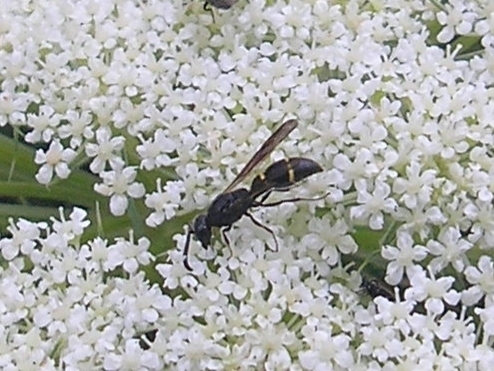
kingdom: Animalia
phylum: Arthropoda
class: Insecta
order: Hymenoptera
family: Eumenidae
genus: Symmorphus
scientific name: Symmorphus bifasciatus
